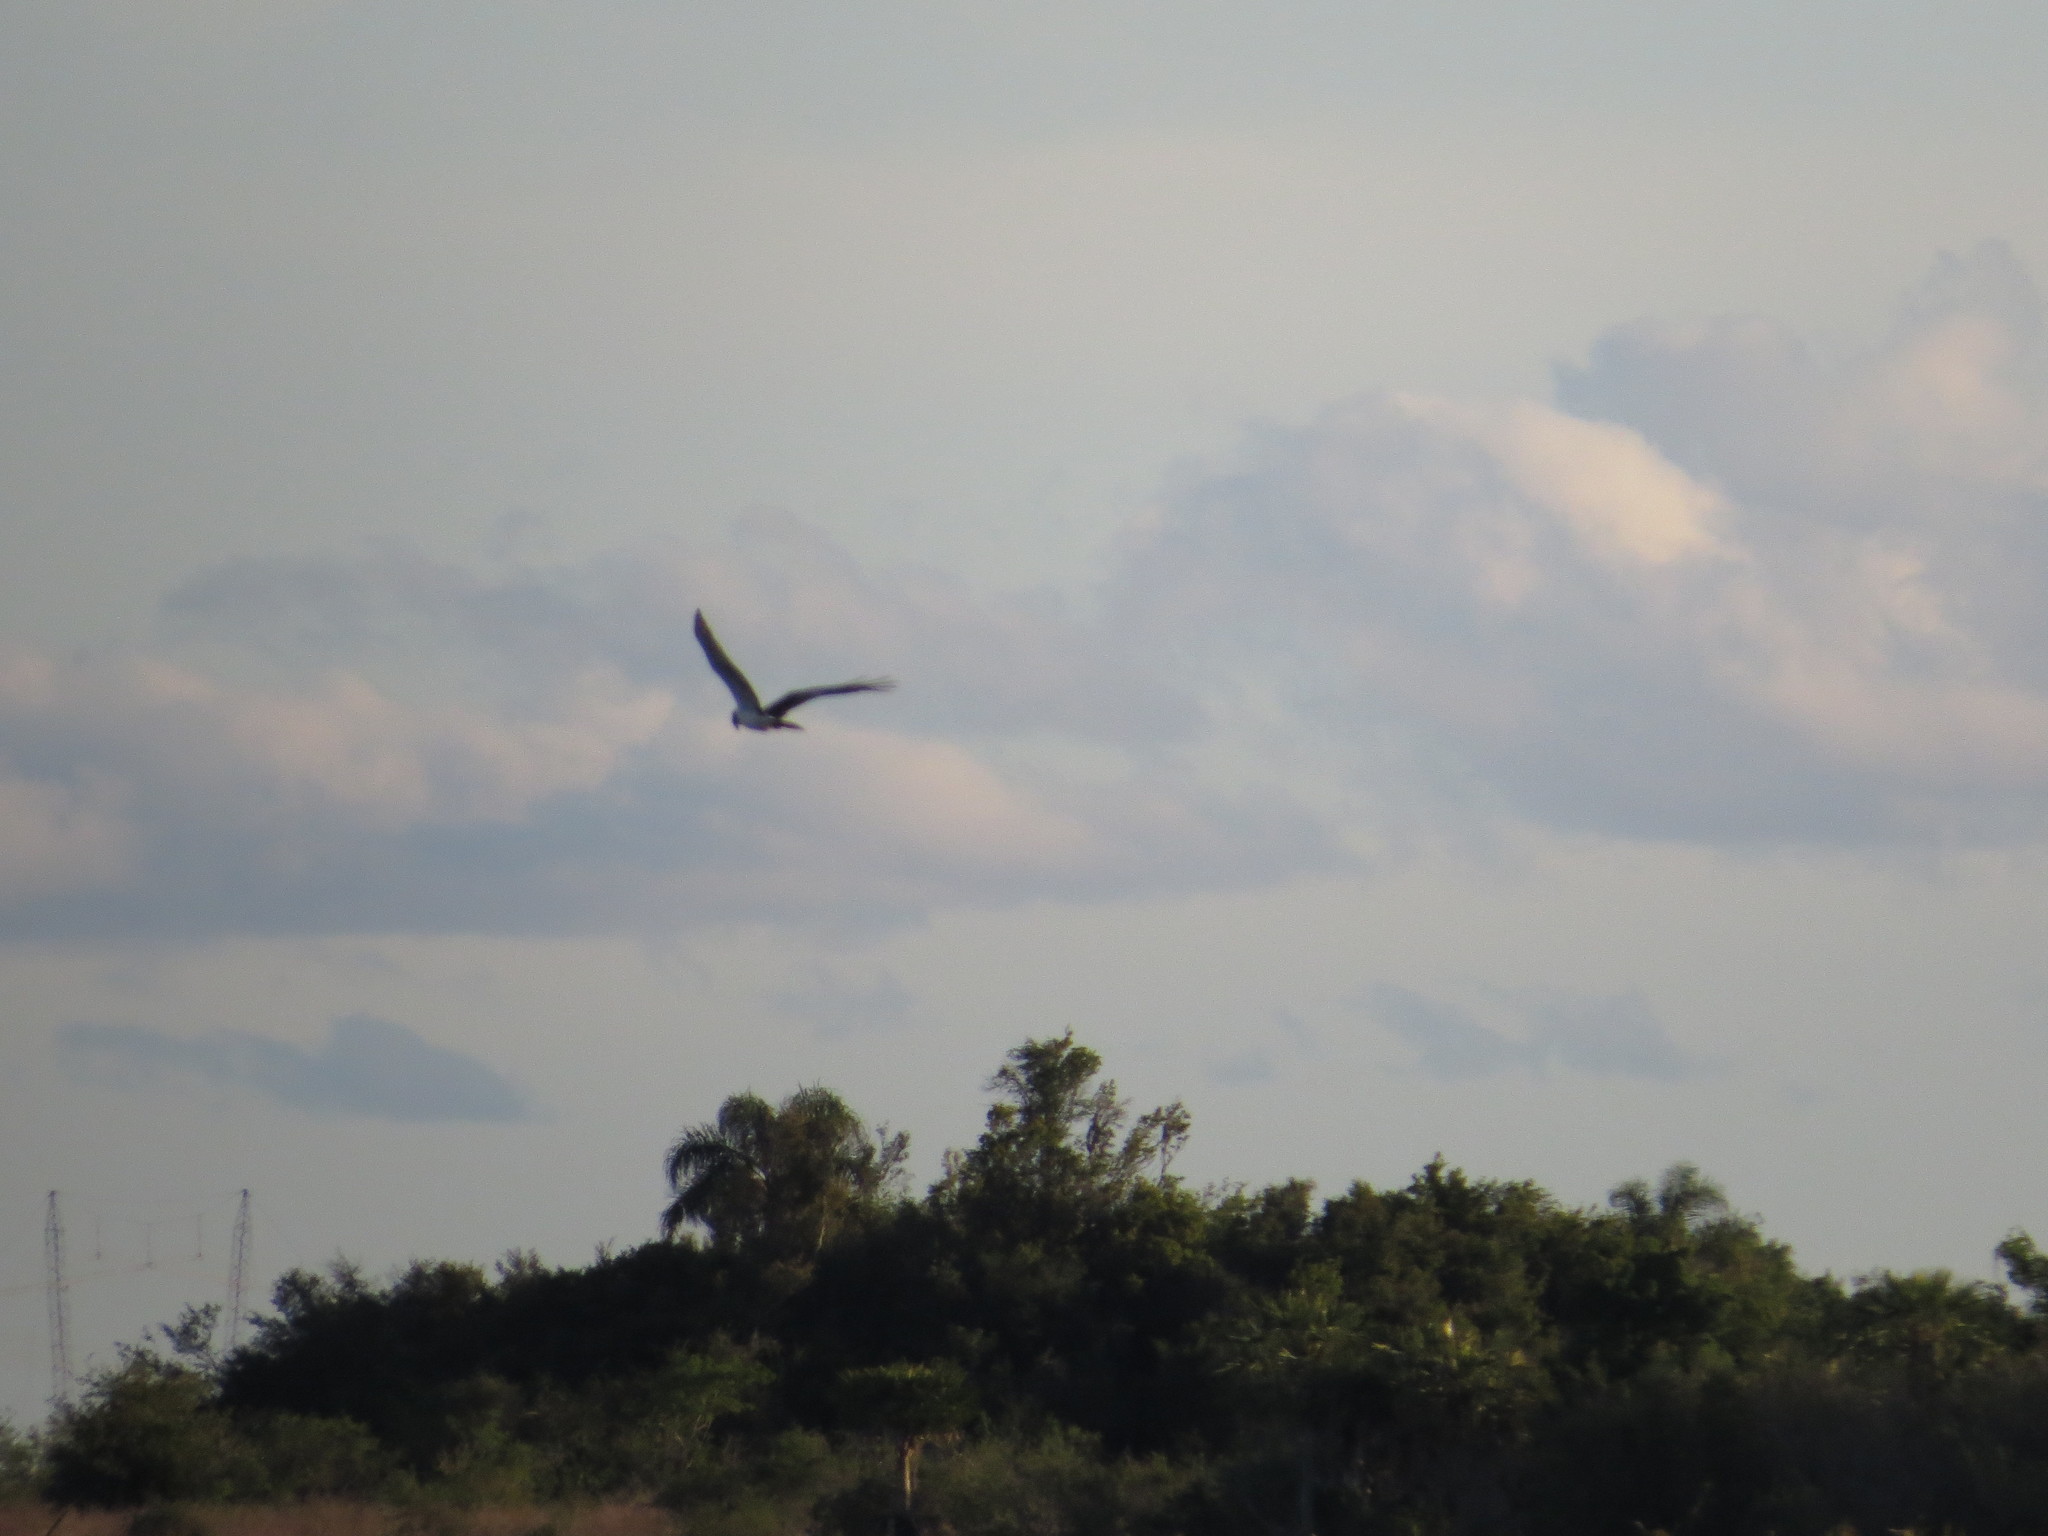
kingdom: Animalia
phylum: Chordata
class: Aves
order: Accipitriformes
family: Accipitridae
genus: Circus
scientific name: Circus buffoni
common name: Long-winged harrier
